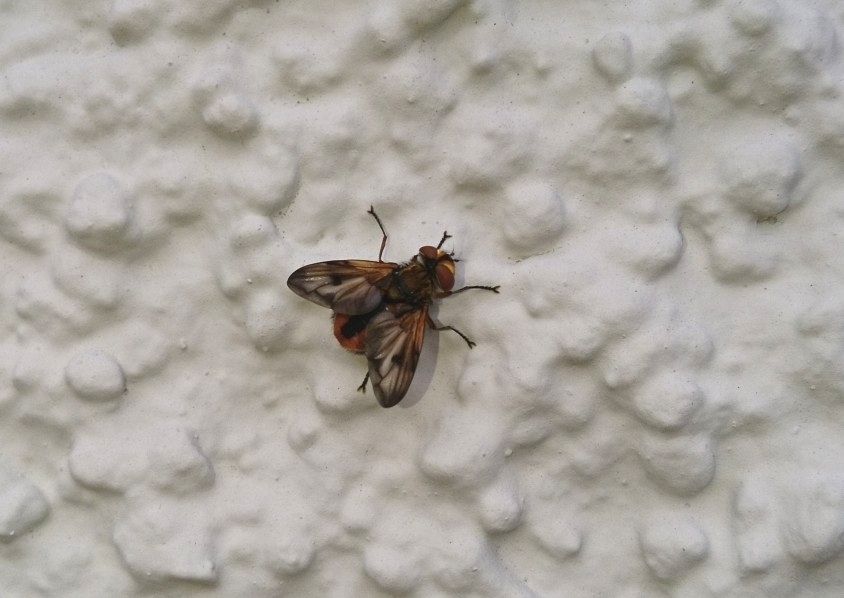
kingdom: Animalia
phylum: Arthropoda
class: Insecta
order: Diptera
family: Tachinidae
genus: Ectophasia
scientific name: Ectophasia crassipennis
